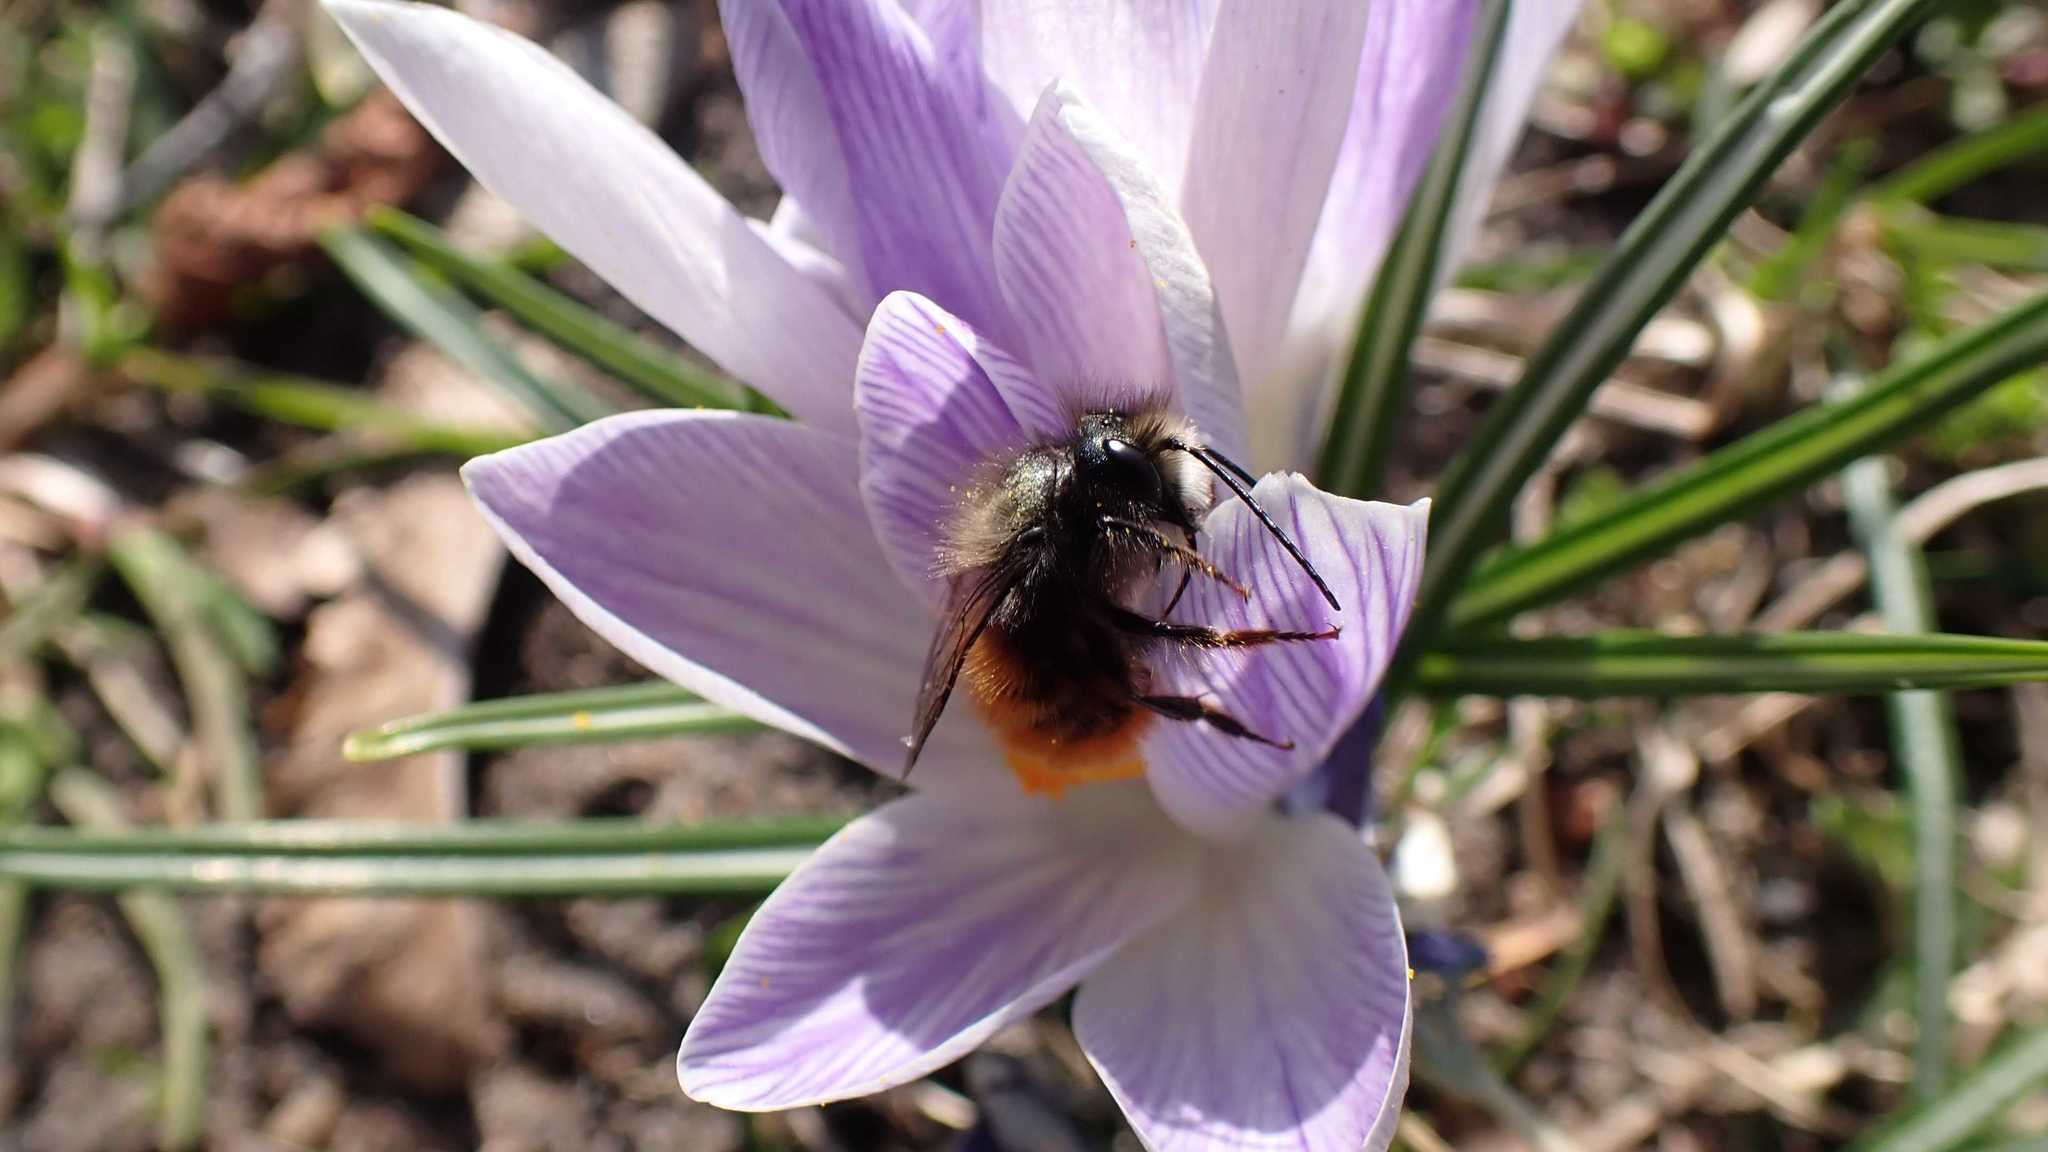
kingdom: Animalia
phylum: Arthropoda
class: Insecta
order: Hymenoptera
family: Megachilidae
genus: Osmia
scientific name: Osmia cornuta
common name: Mason bee
